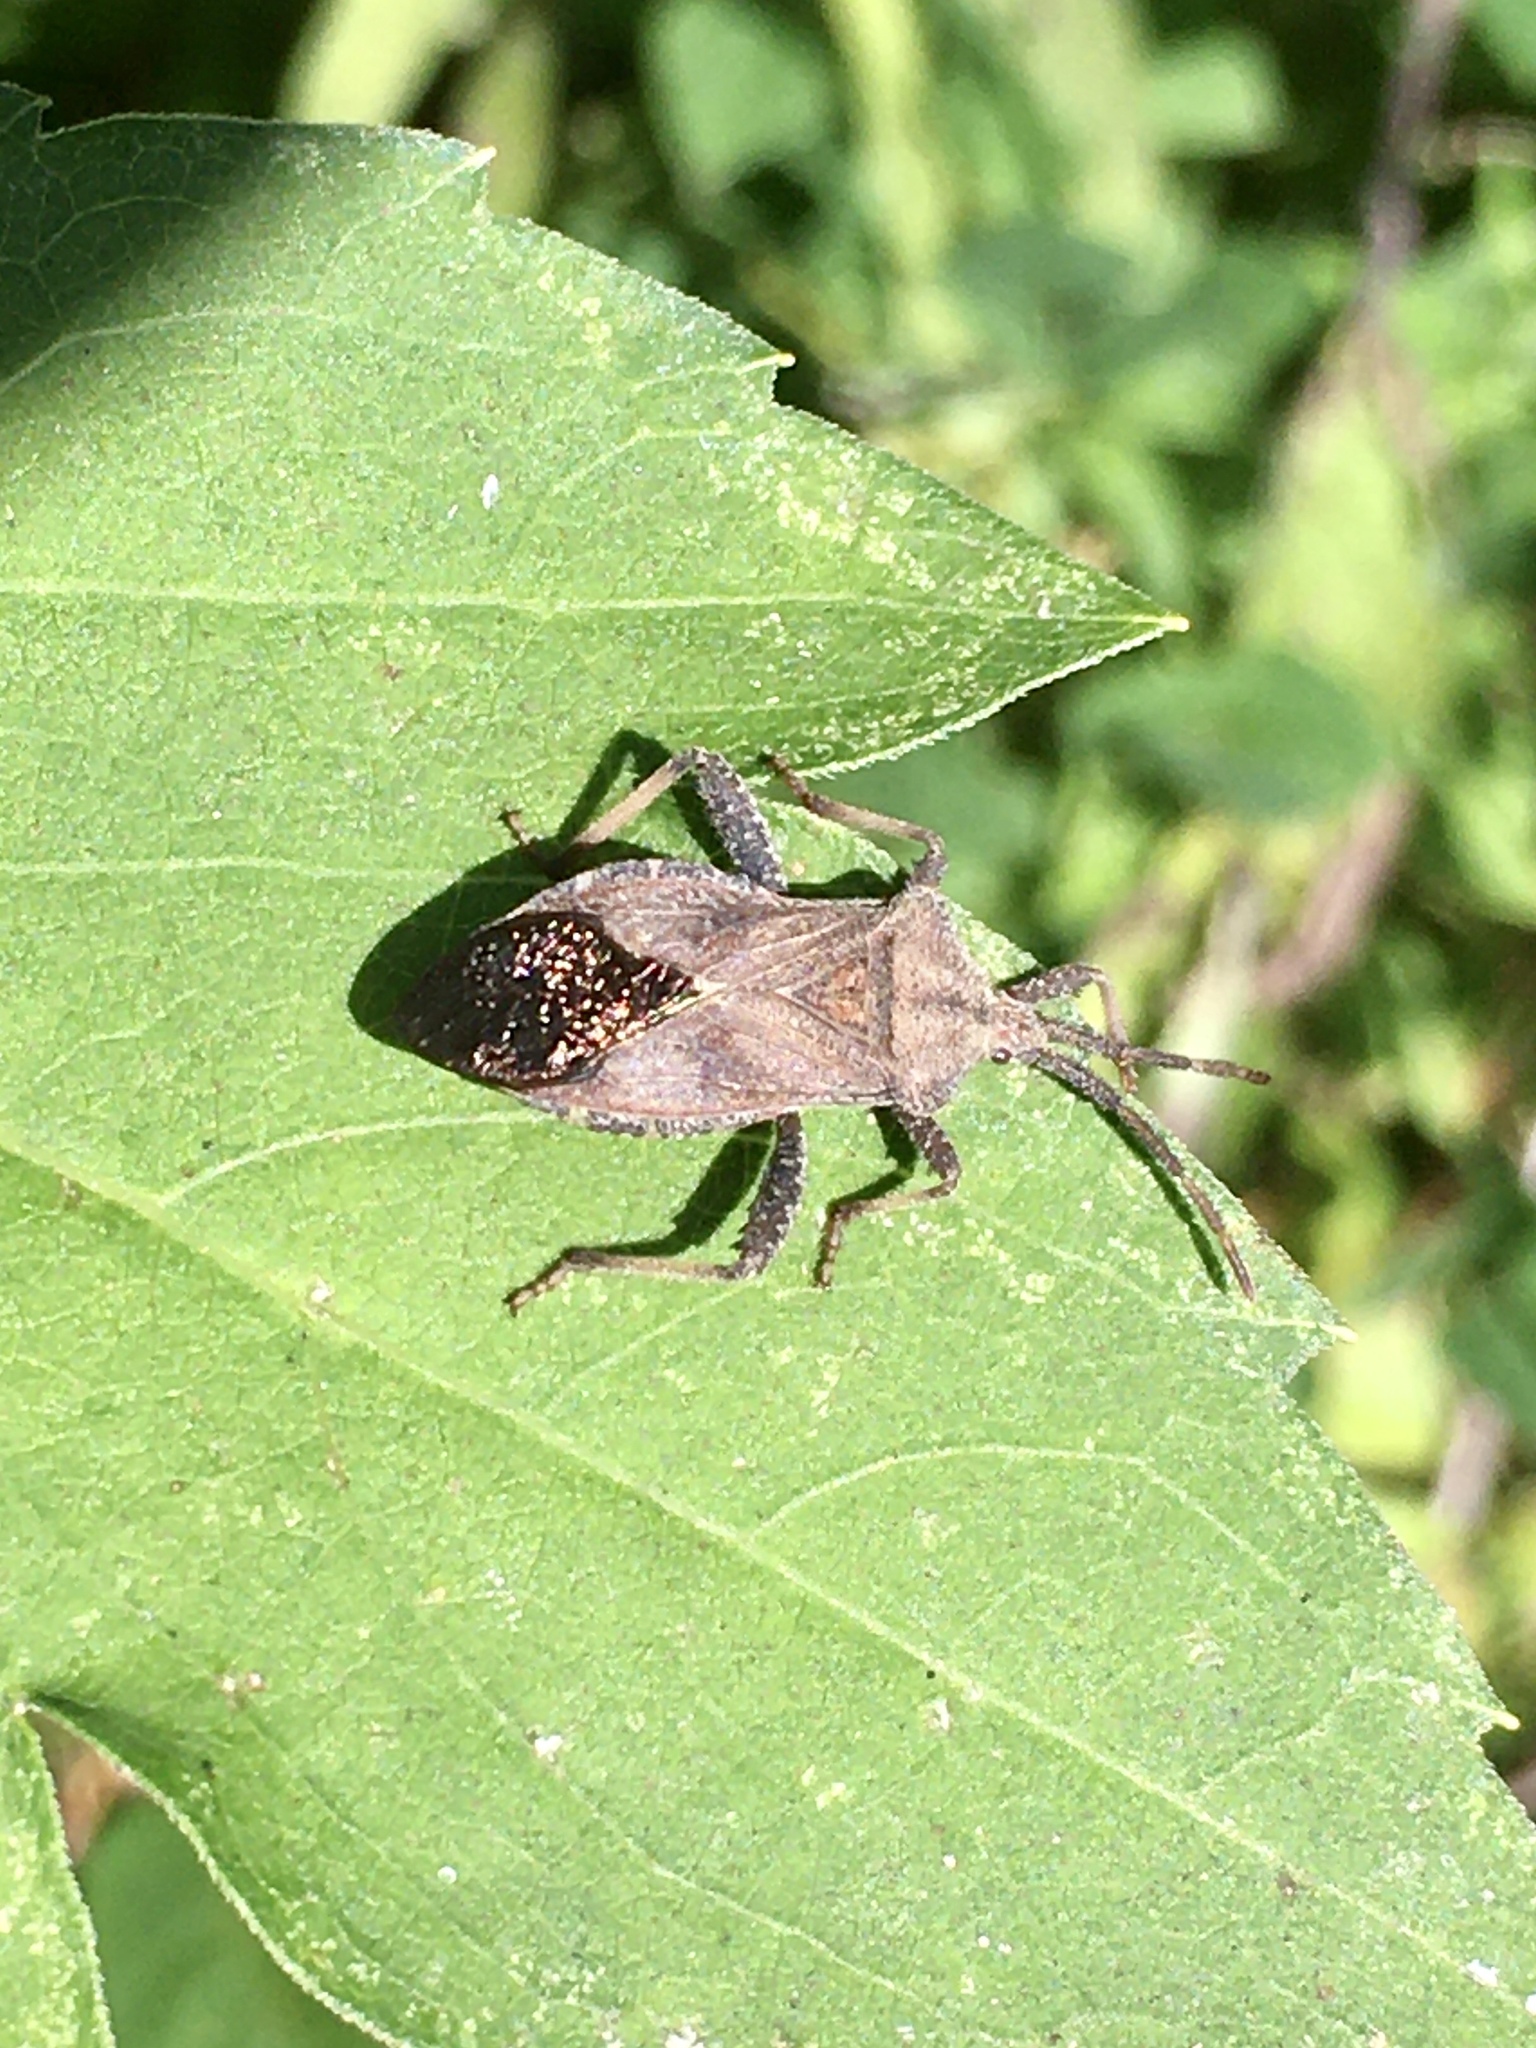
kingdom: Animalia
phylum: Arthropoda
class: Insecta
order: Hemiptera
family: Coreidae
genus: Piezogaster
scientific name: Piezogaster calcarator
